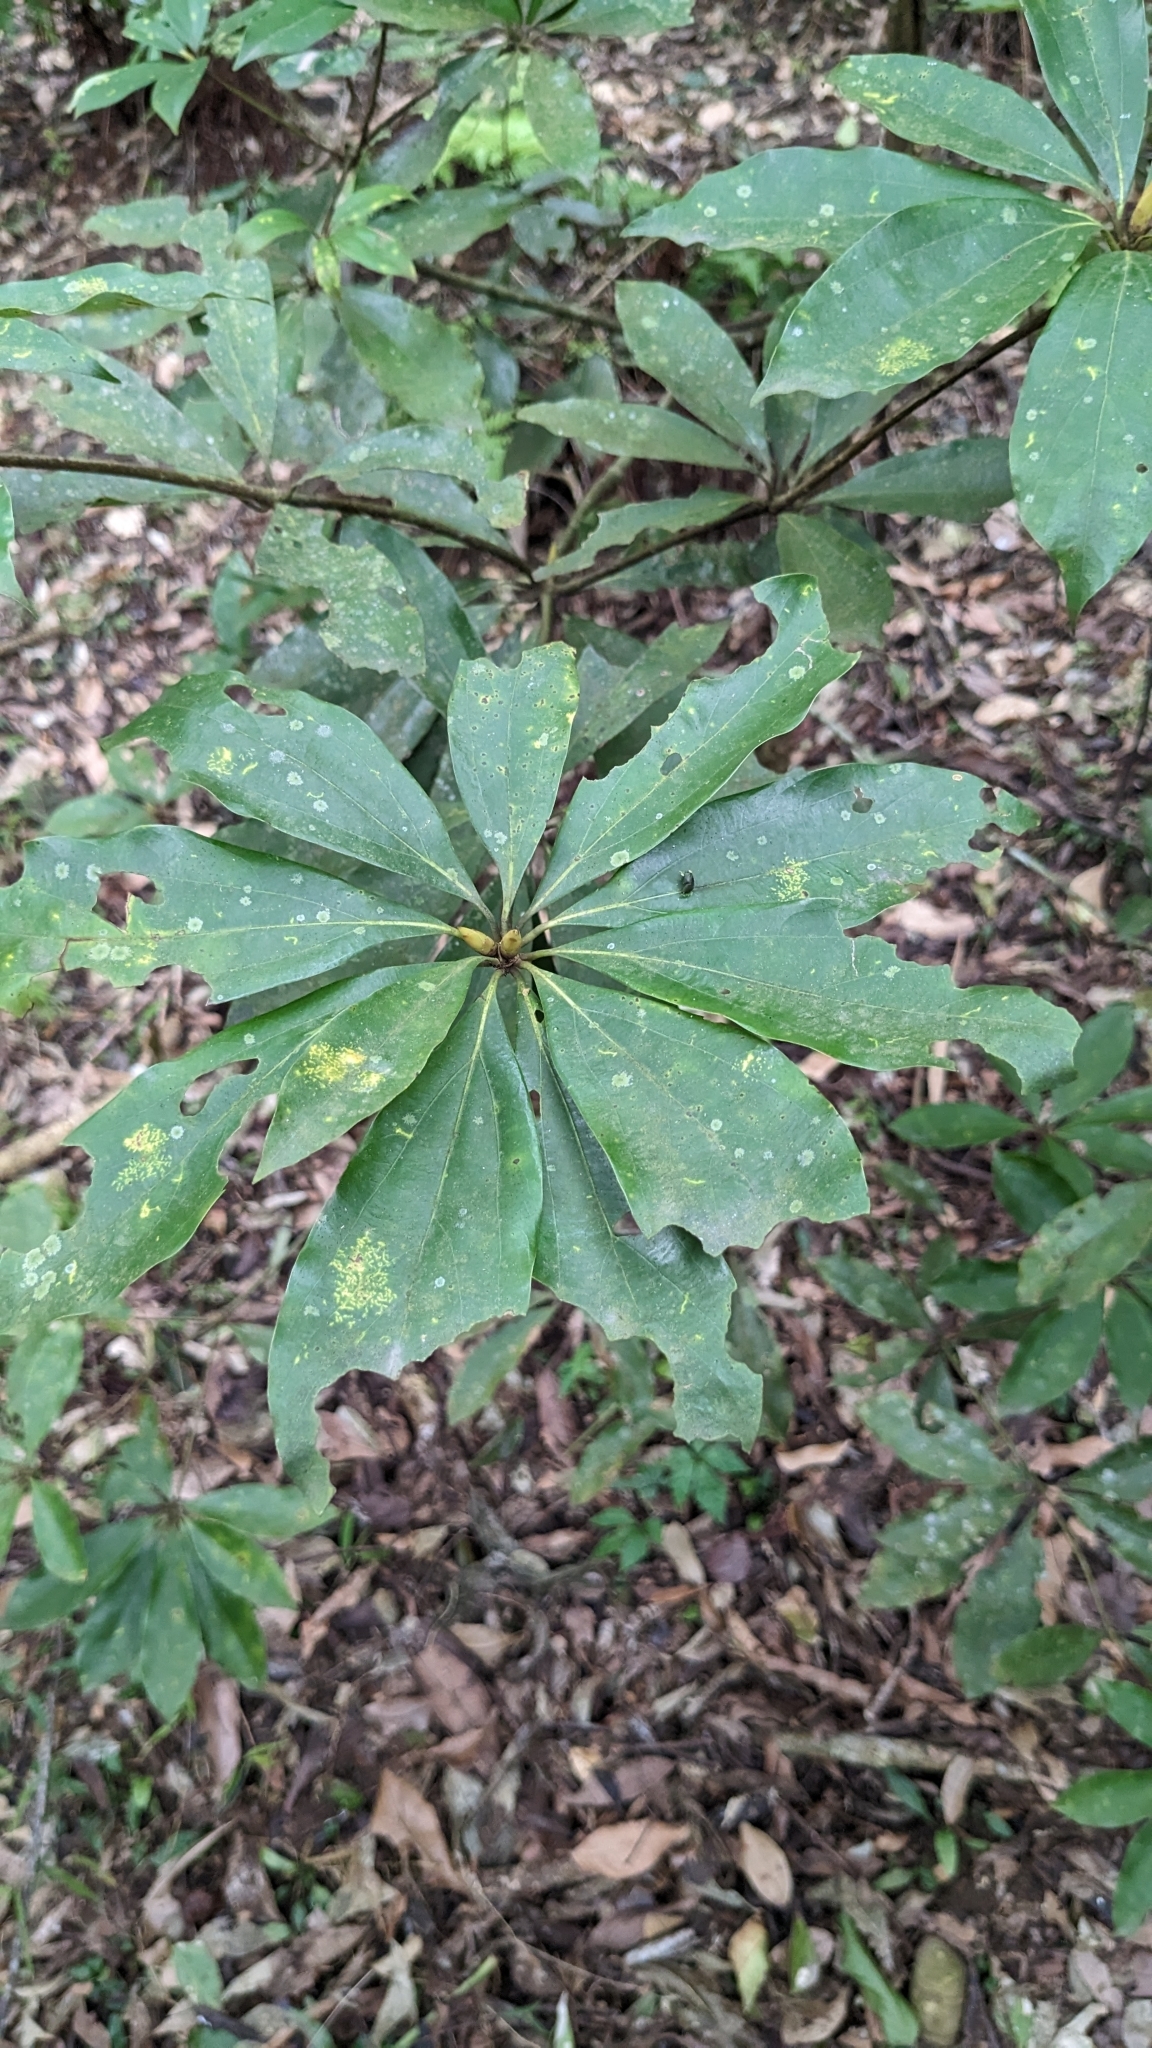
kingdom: Plantae
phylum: Tracheophyta
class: Magnoliopsida
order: Laurales
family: Lauraceae
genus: Neolitsea
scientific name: Neolitsea konishii
